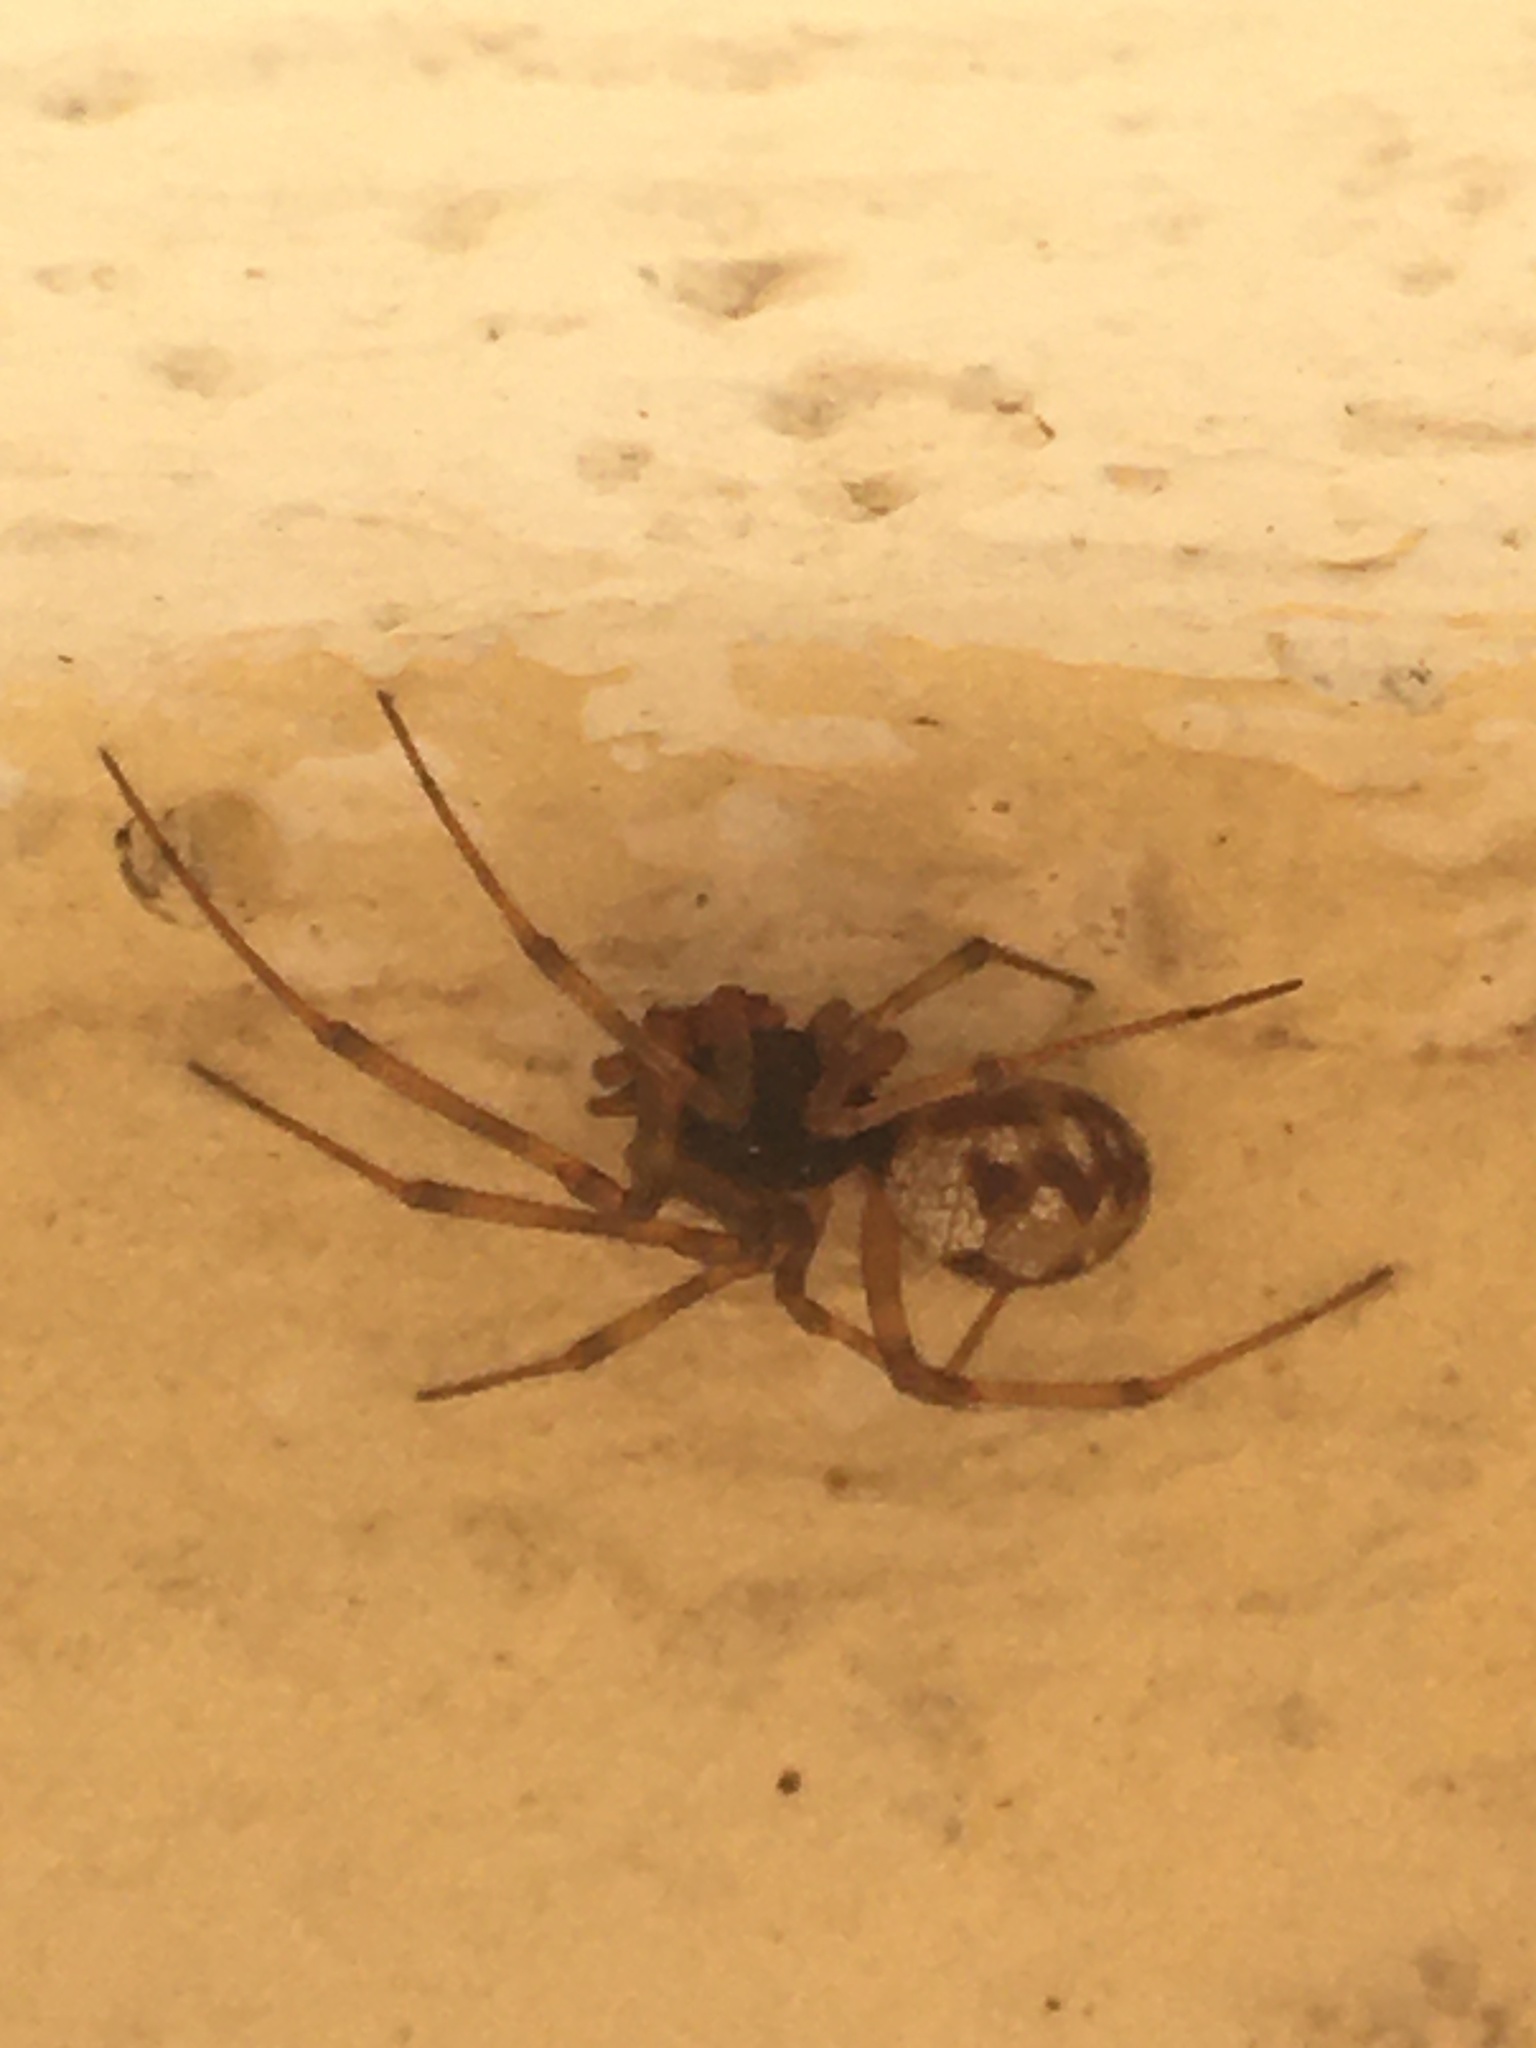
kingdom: Animalia
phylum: Arthropoda
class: Arachnida
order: Araneae
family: Theridiidae
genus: Steatoda
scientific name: Steatoda triangulosa
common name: Triangulate bud spider
